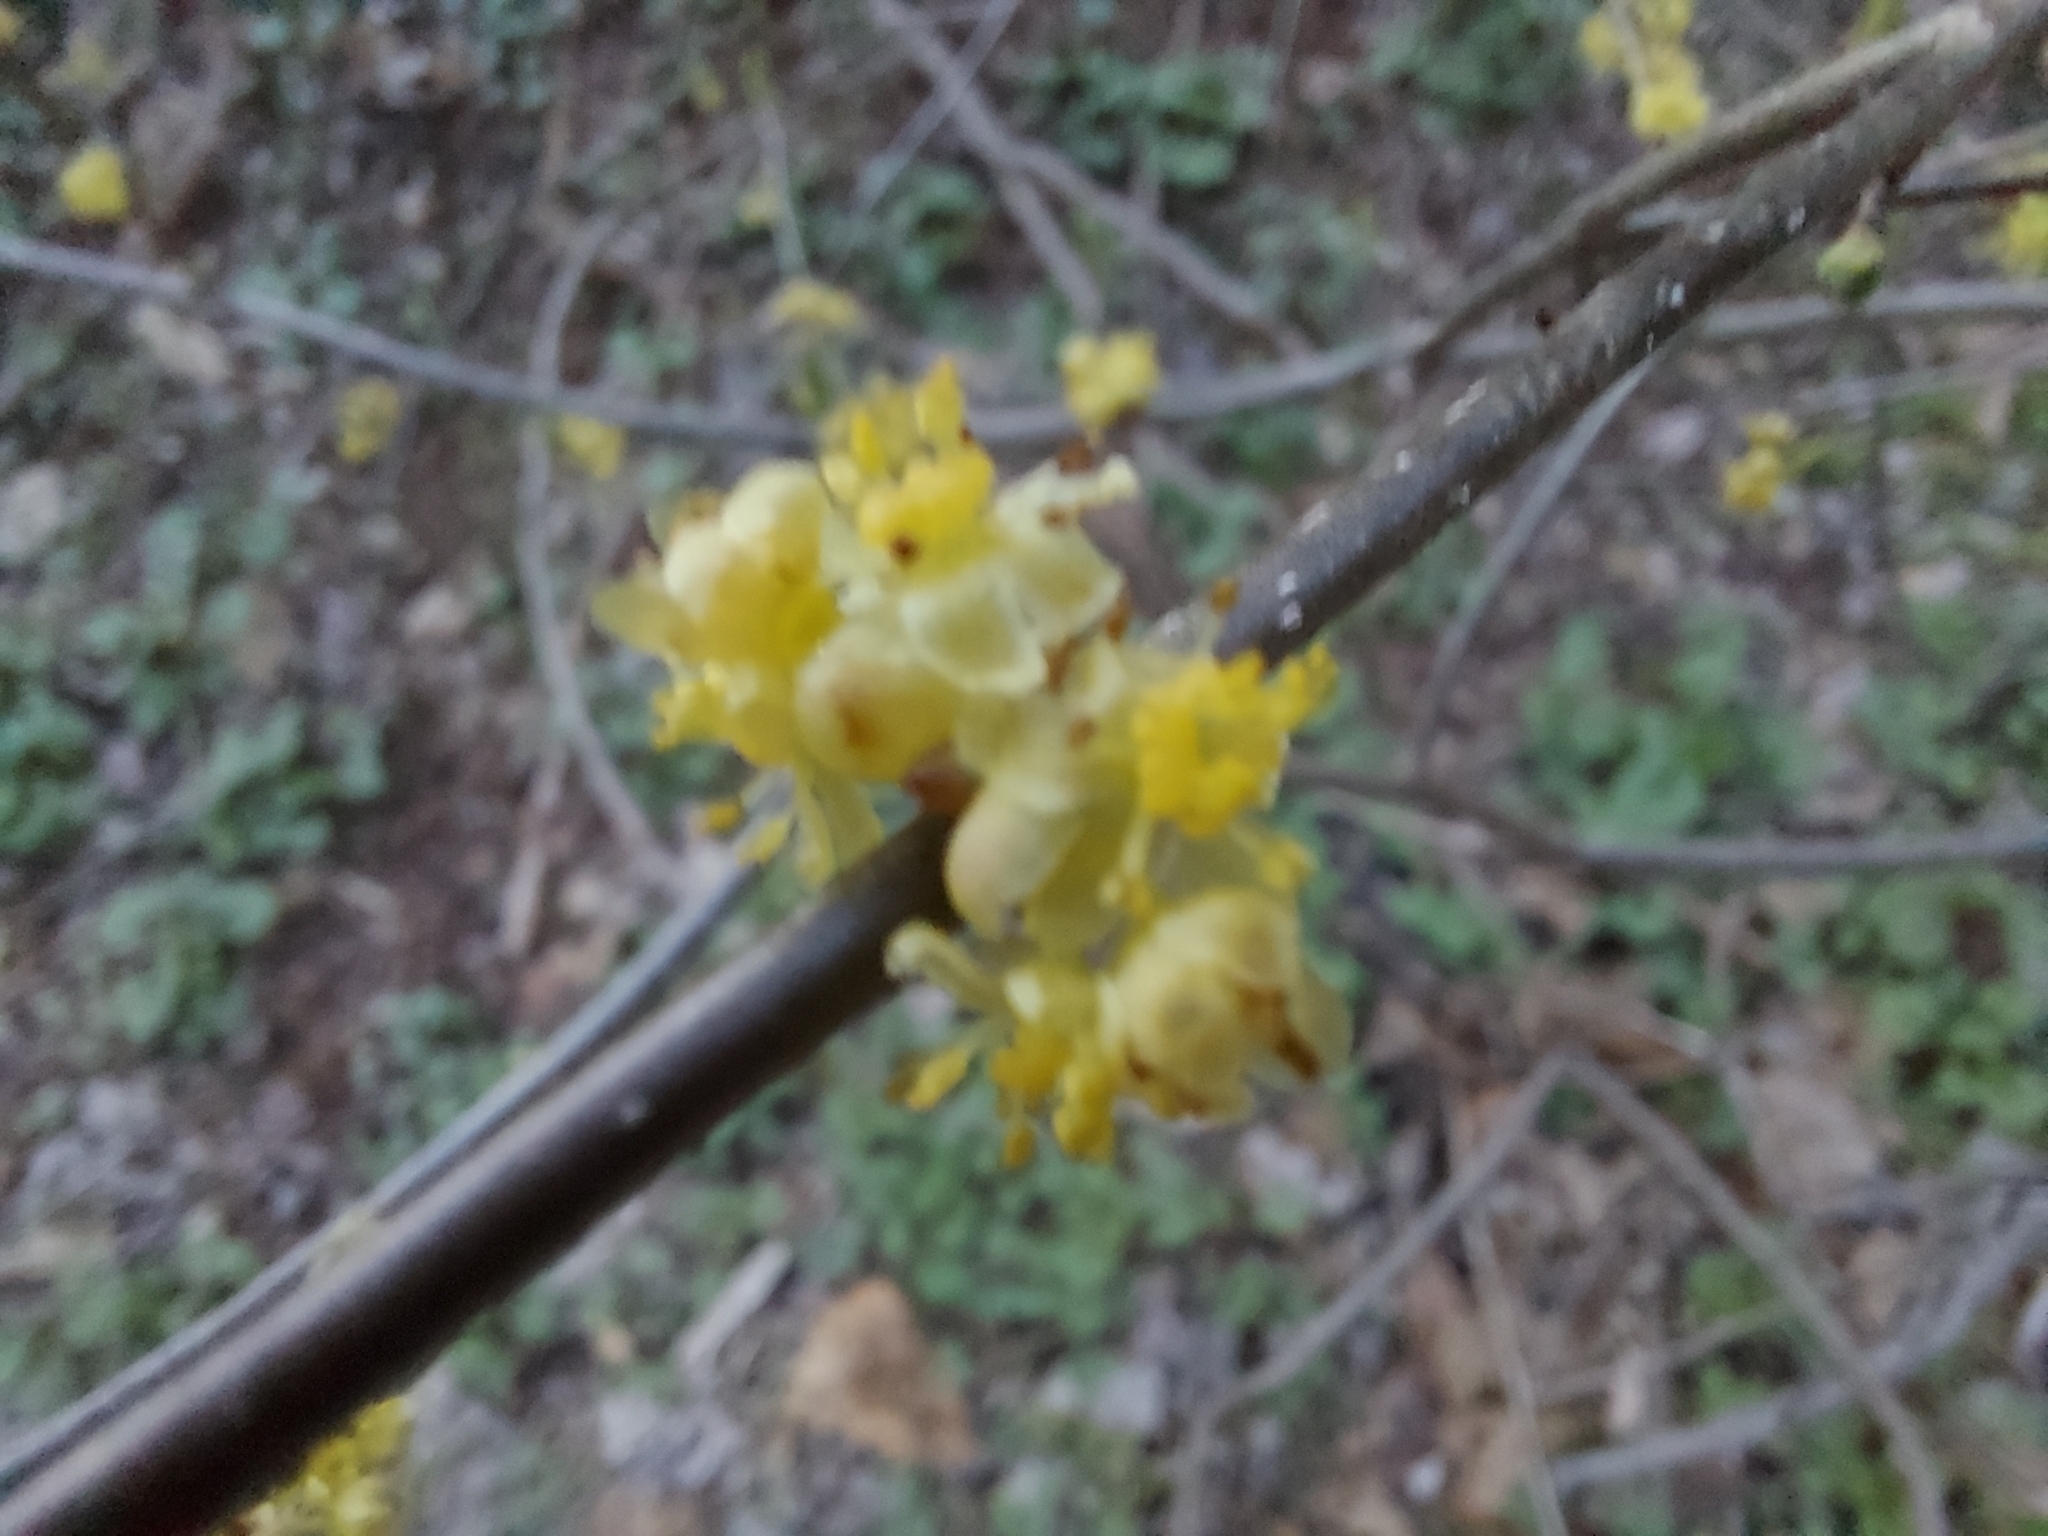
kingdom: Plantae
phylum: Tracheophyta
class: Magnoliopsida
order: Laurales
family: Lauraceae
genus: Lindera
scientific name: Lindera benzoin
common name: Spicebush
